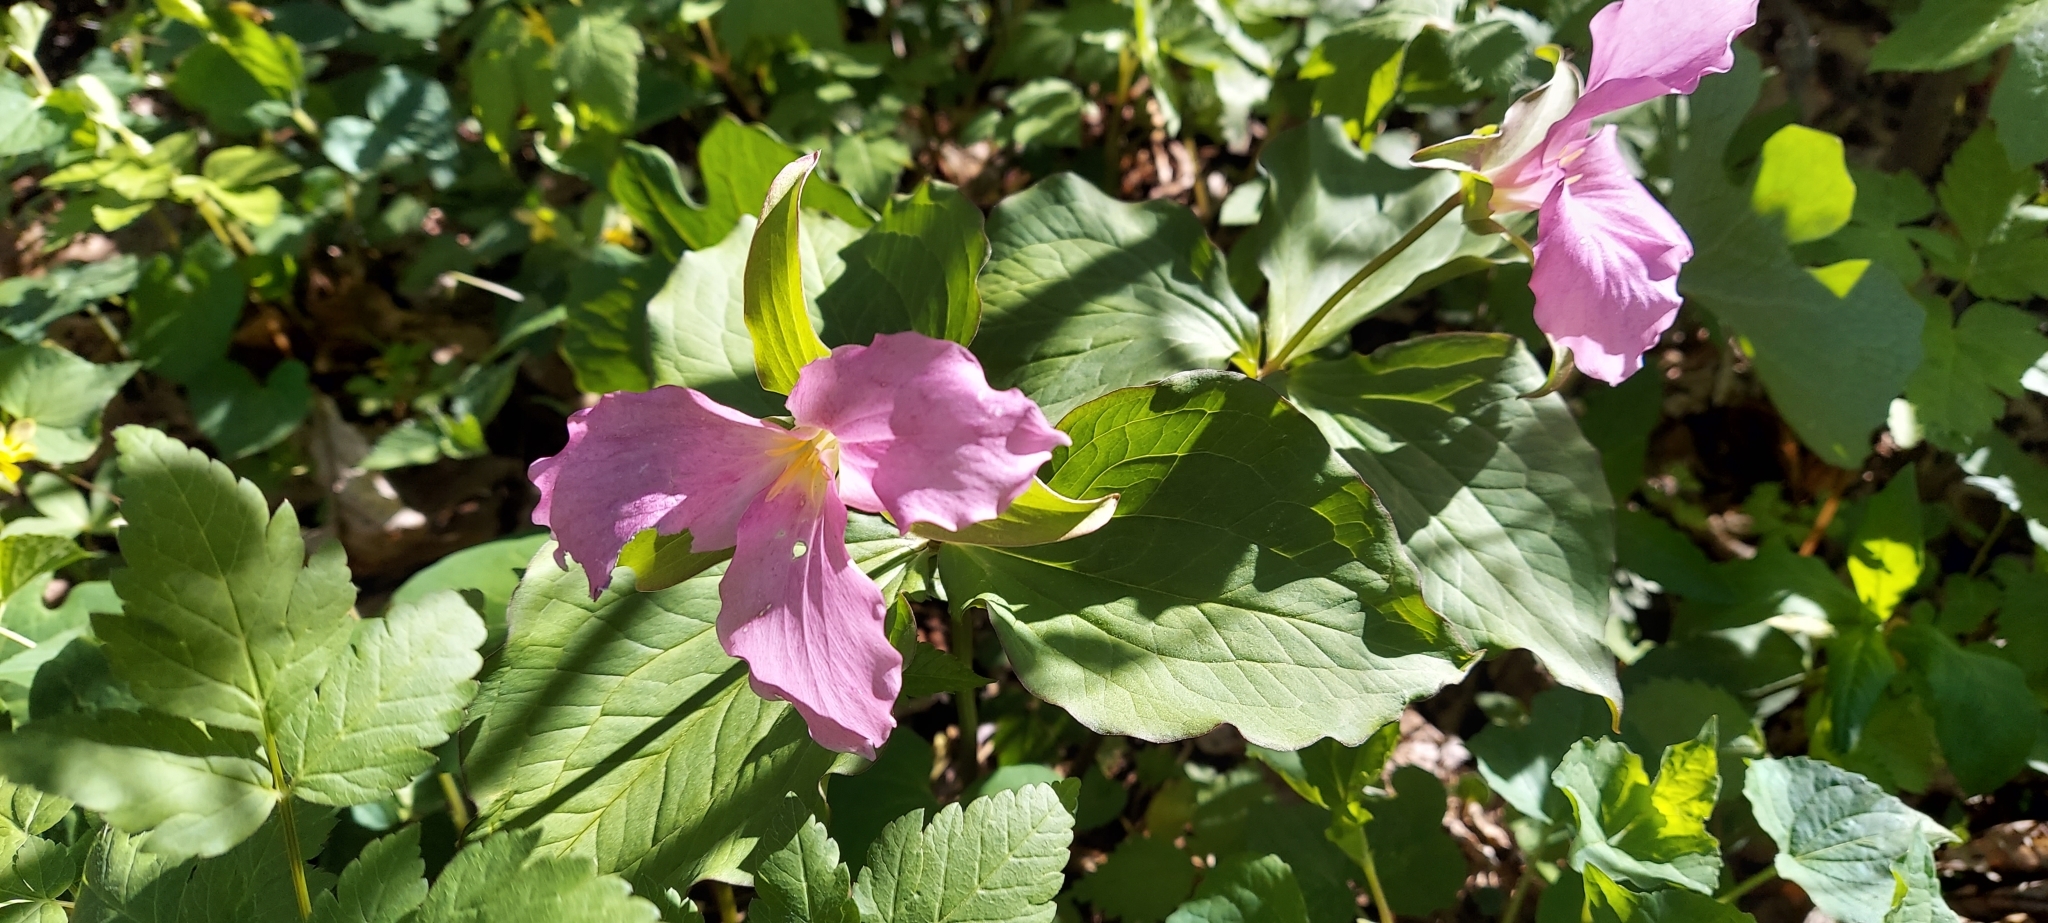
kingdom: Plantae
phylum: Tracheophyta
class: Liliopsida
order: Liliales
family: Melanthiaceae
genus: Trillium
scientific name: Trillium grandiflorum
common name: Great white trillium
